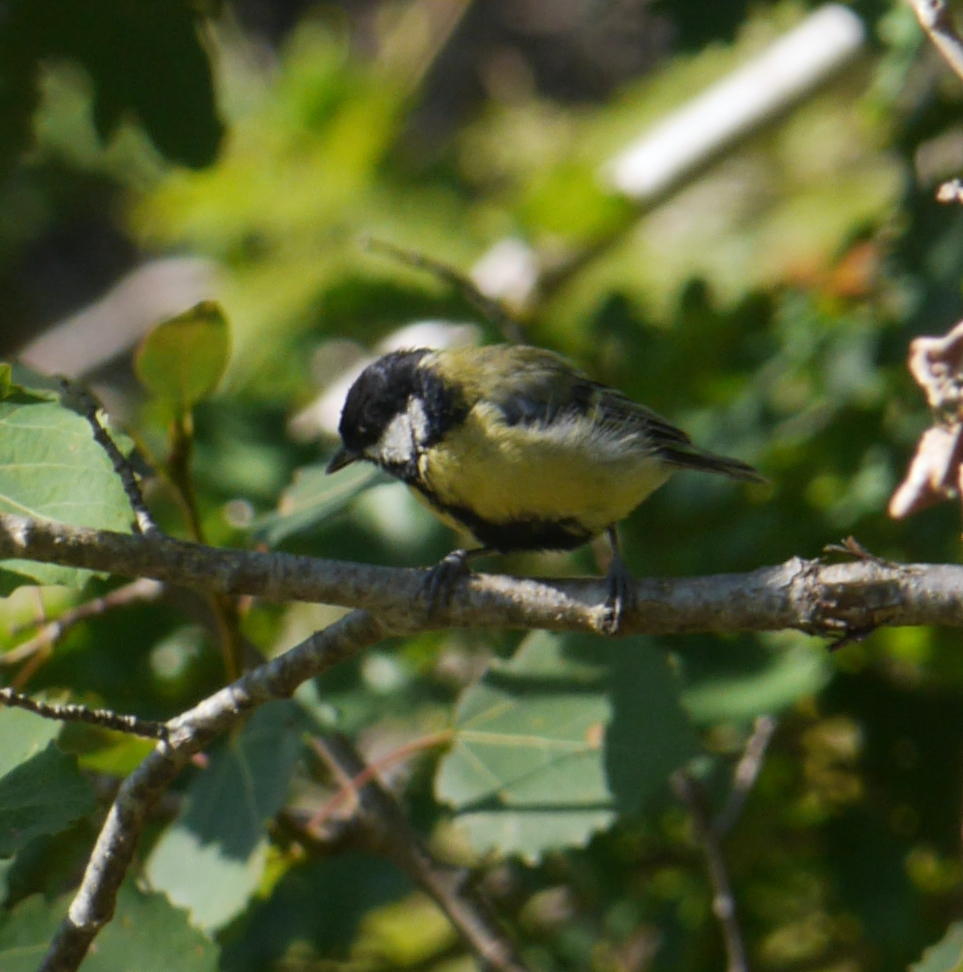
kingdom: Animalia
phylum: Chordata
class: Aves
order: Passeriformes
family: Paridae
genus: Parus
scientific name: Parus major
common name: Great tit
